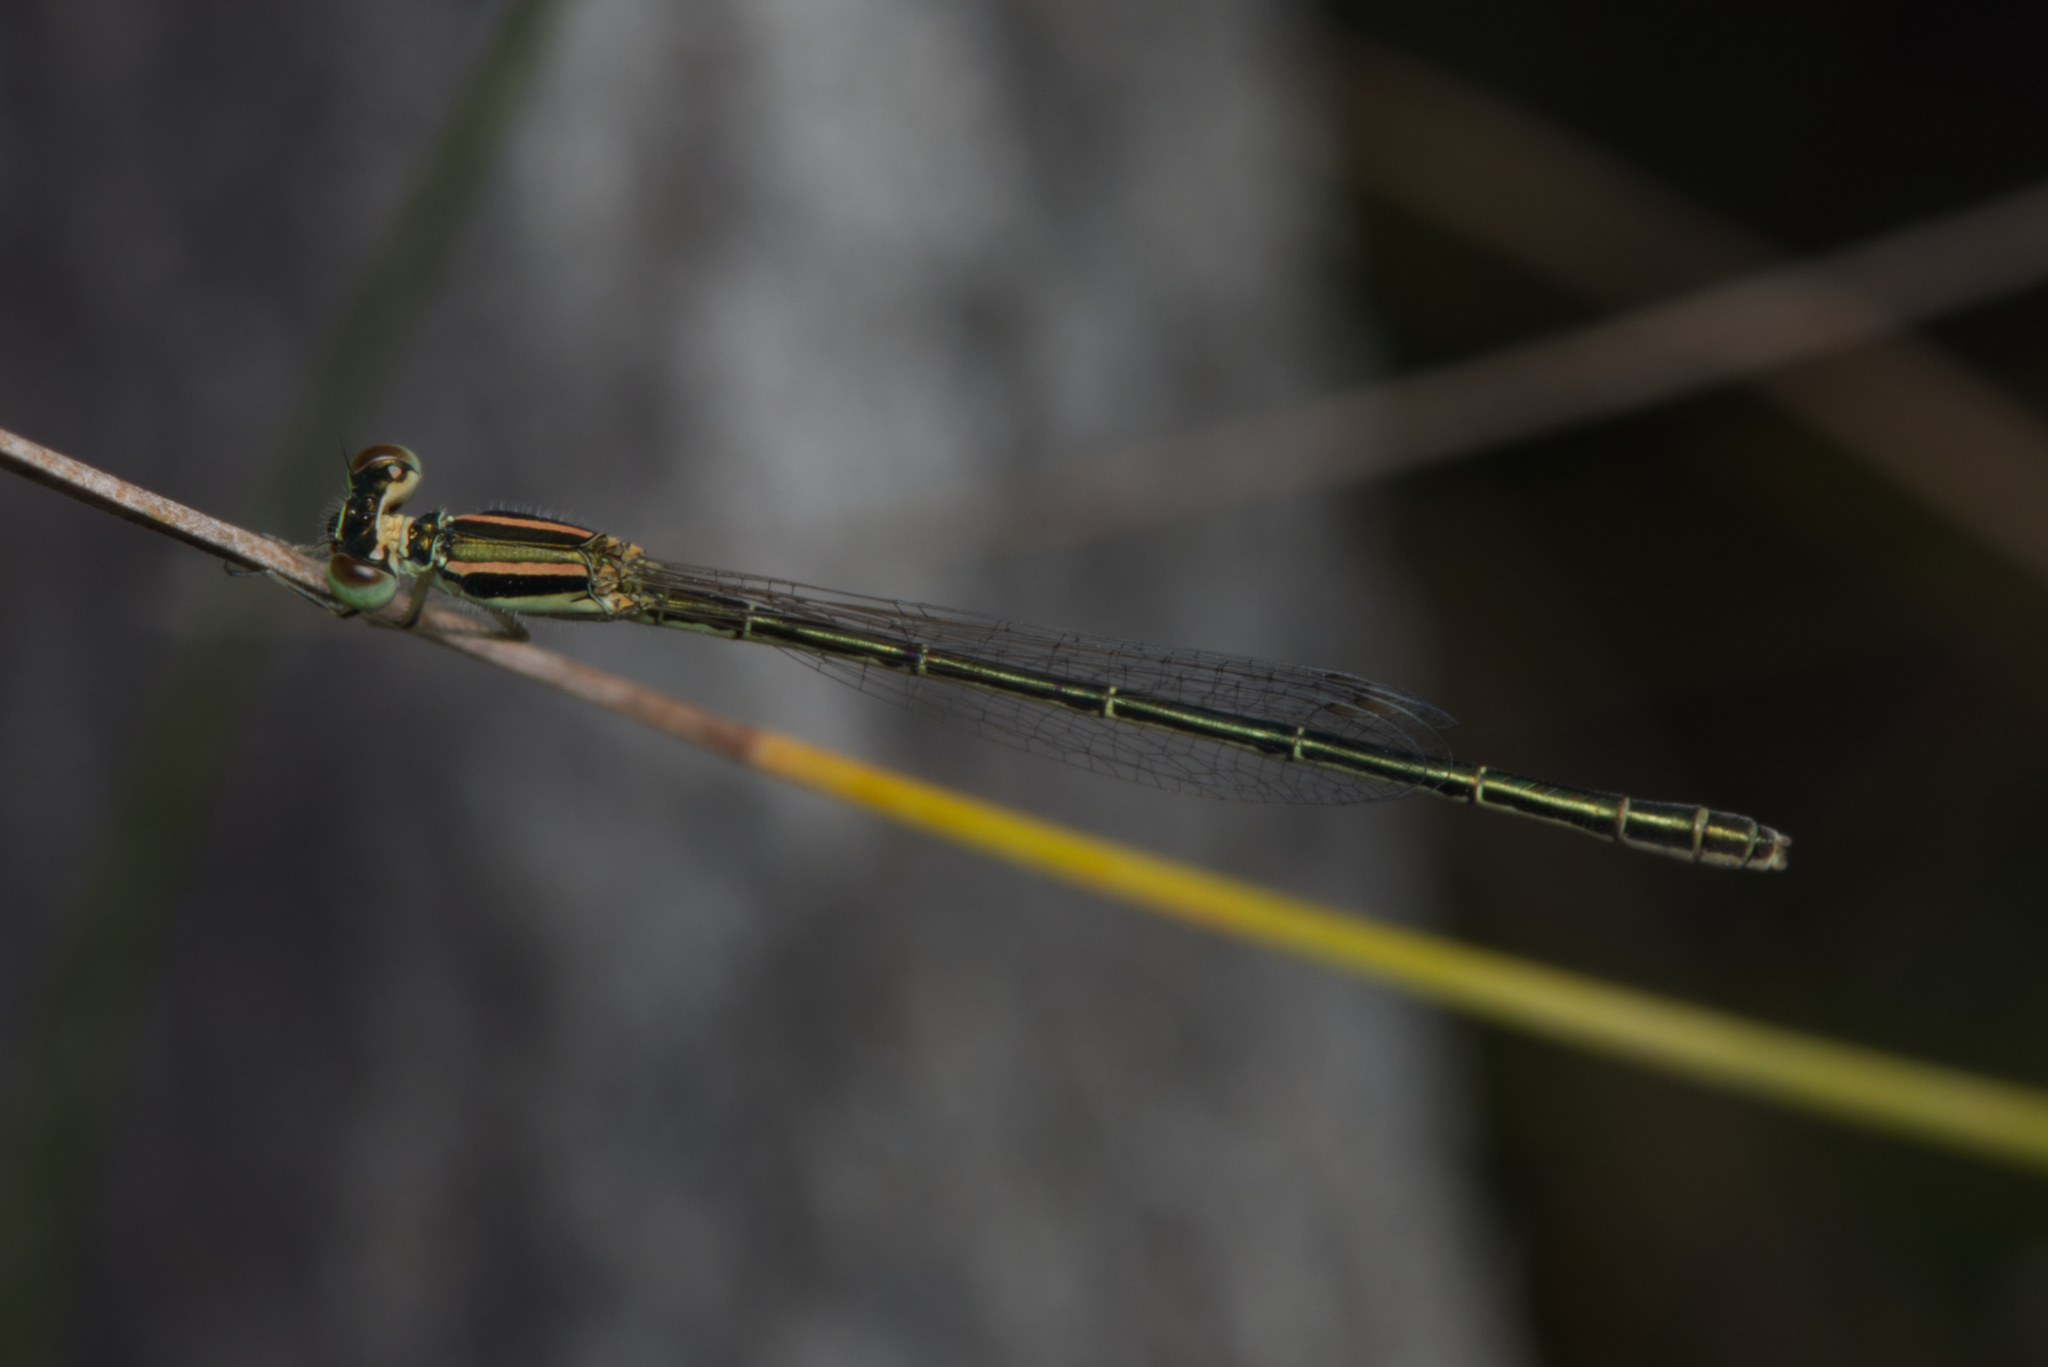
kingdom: Animalia
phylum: Arthropoda
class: Insecta
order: Odonata
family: Coenagrionidae
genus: Ischnura
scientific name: Ischnura aurora
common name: Gossamer damselfly
